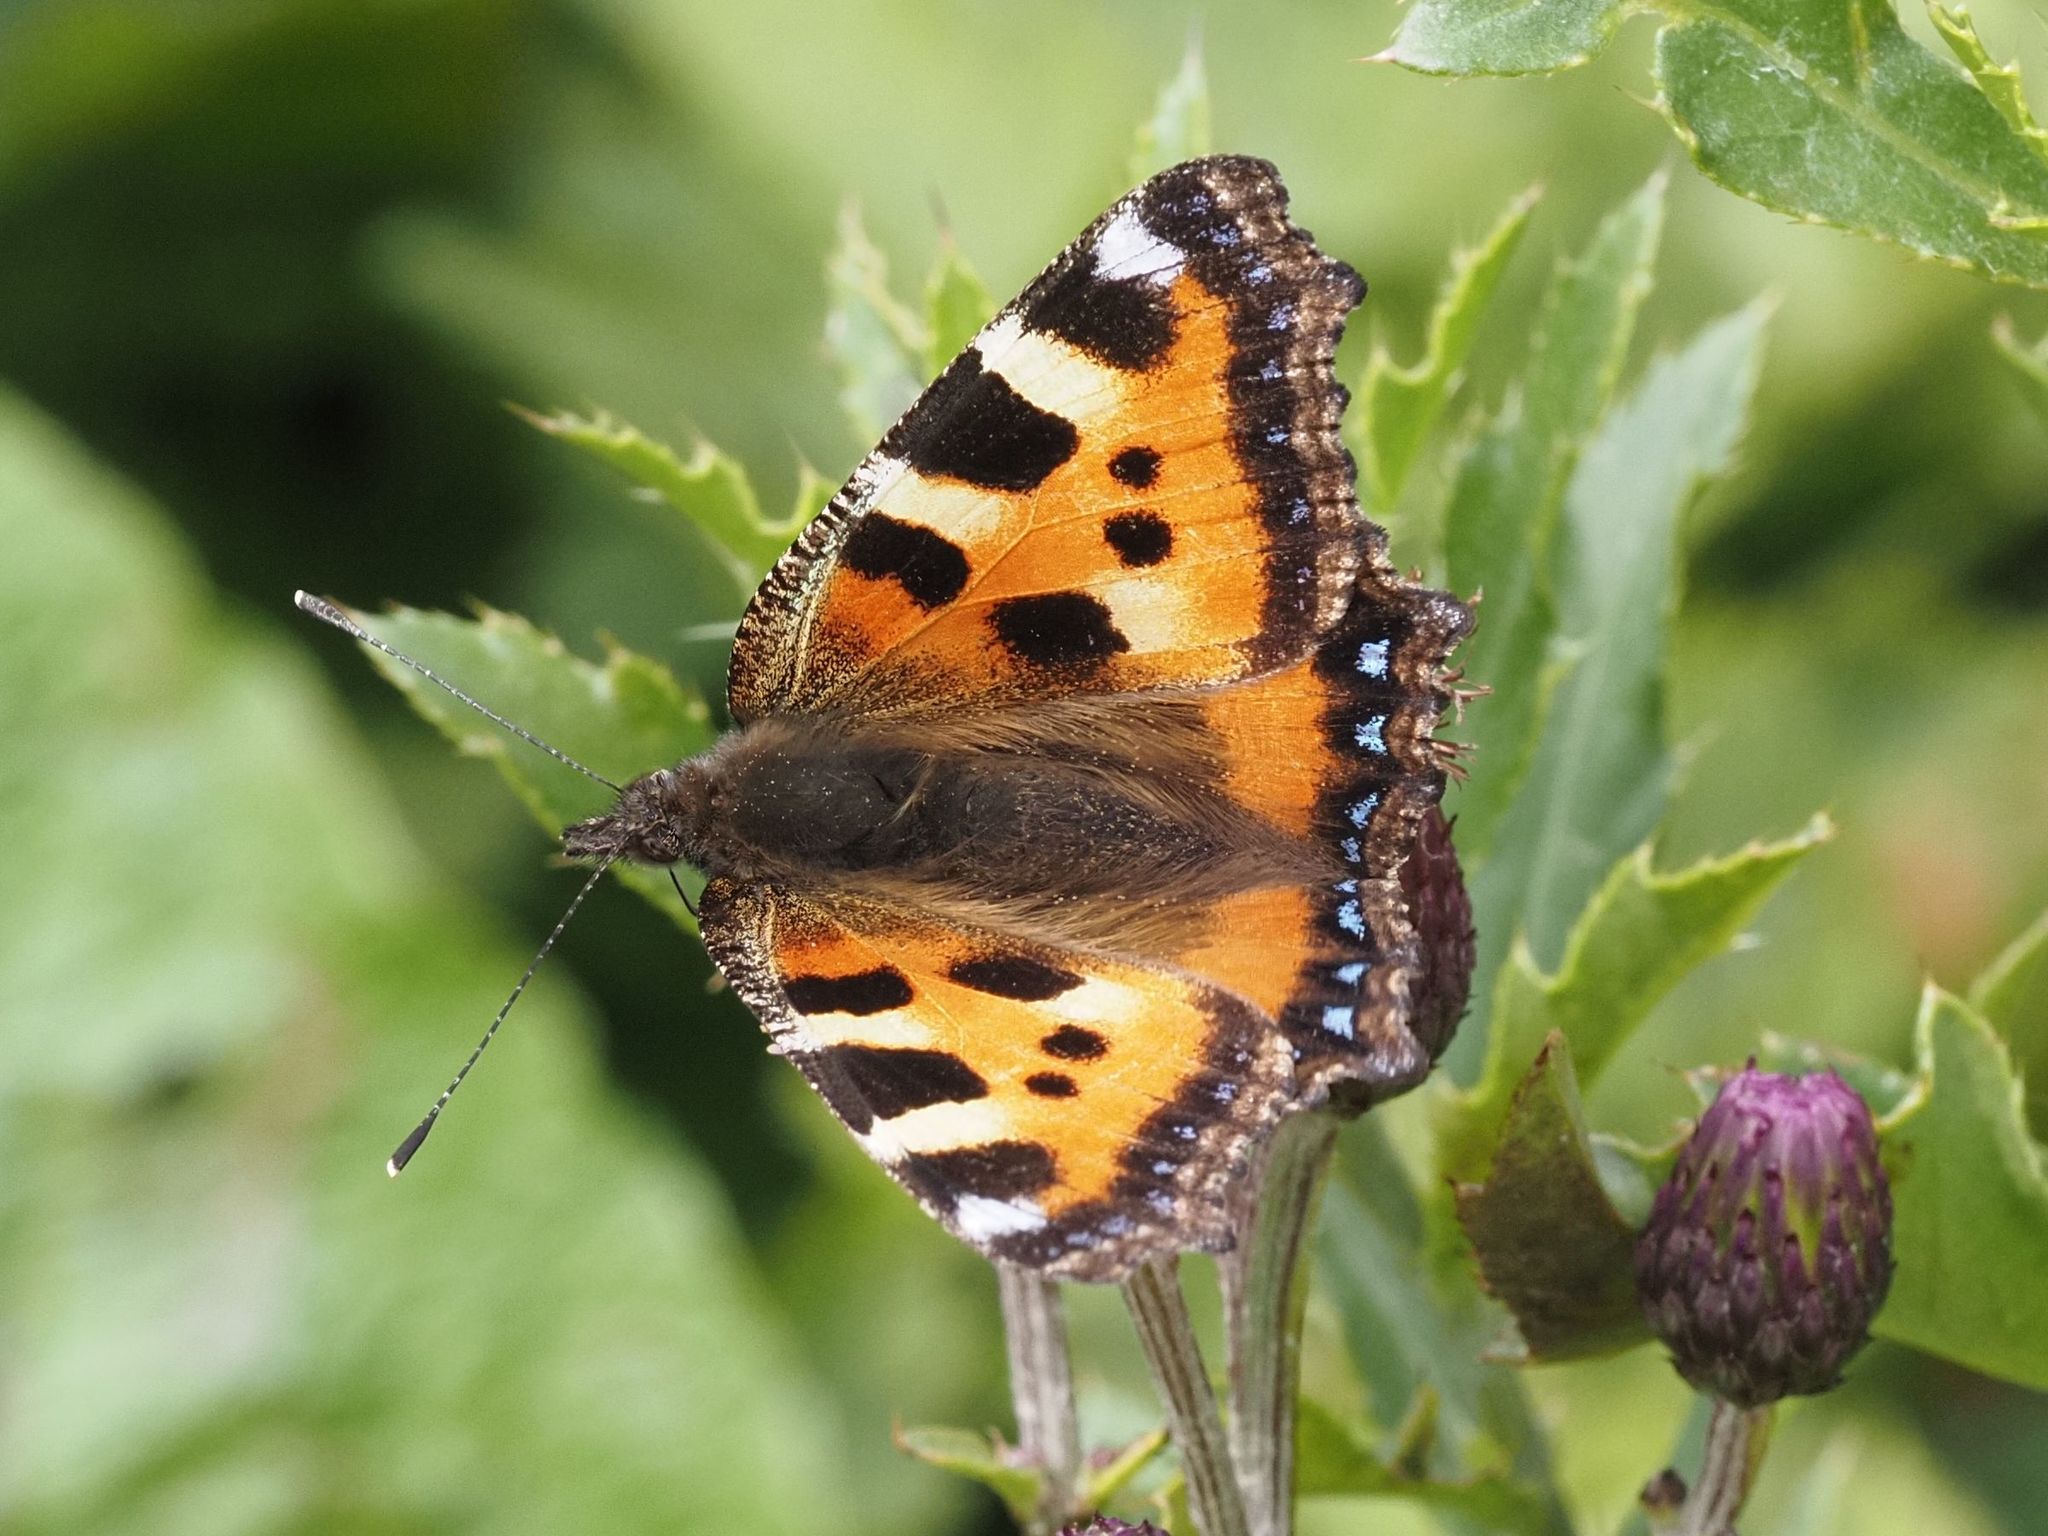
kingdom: Animalia
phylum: Arthropoda
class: Insecta
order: Lepidoptera
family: Nymphalidae
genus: Aglais
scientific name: Aglais urticae
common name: Small tortoiseshell
